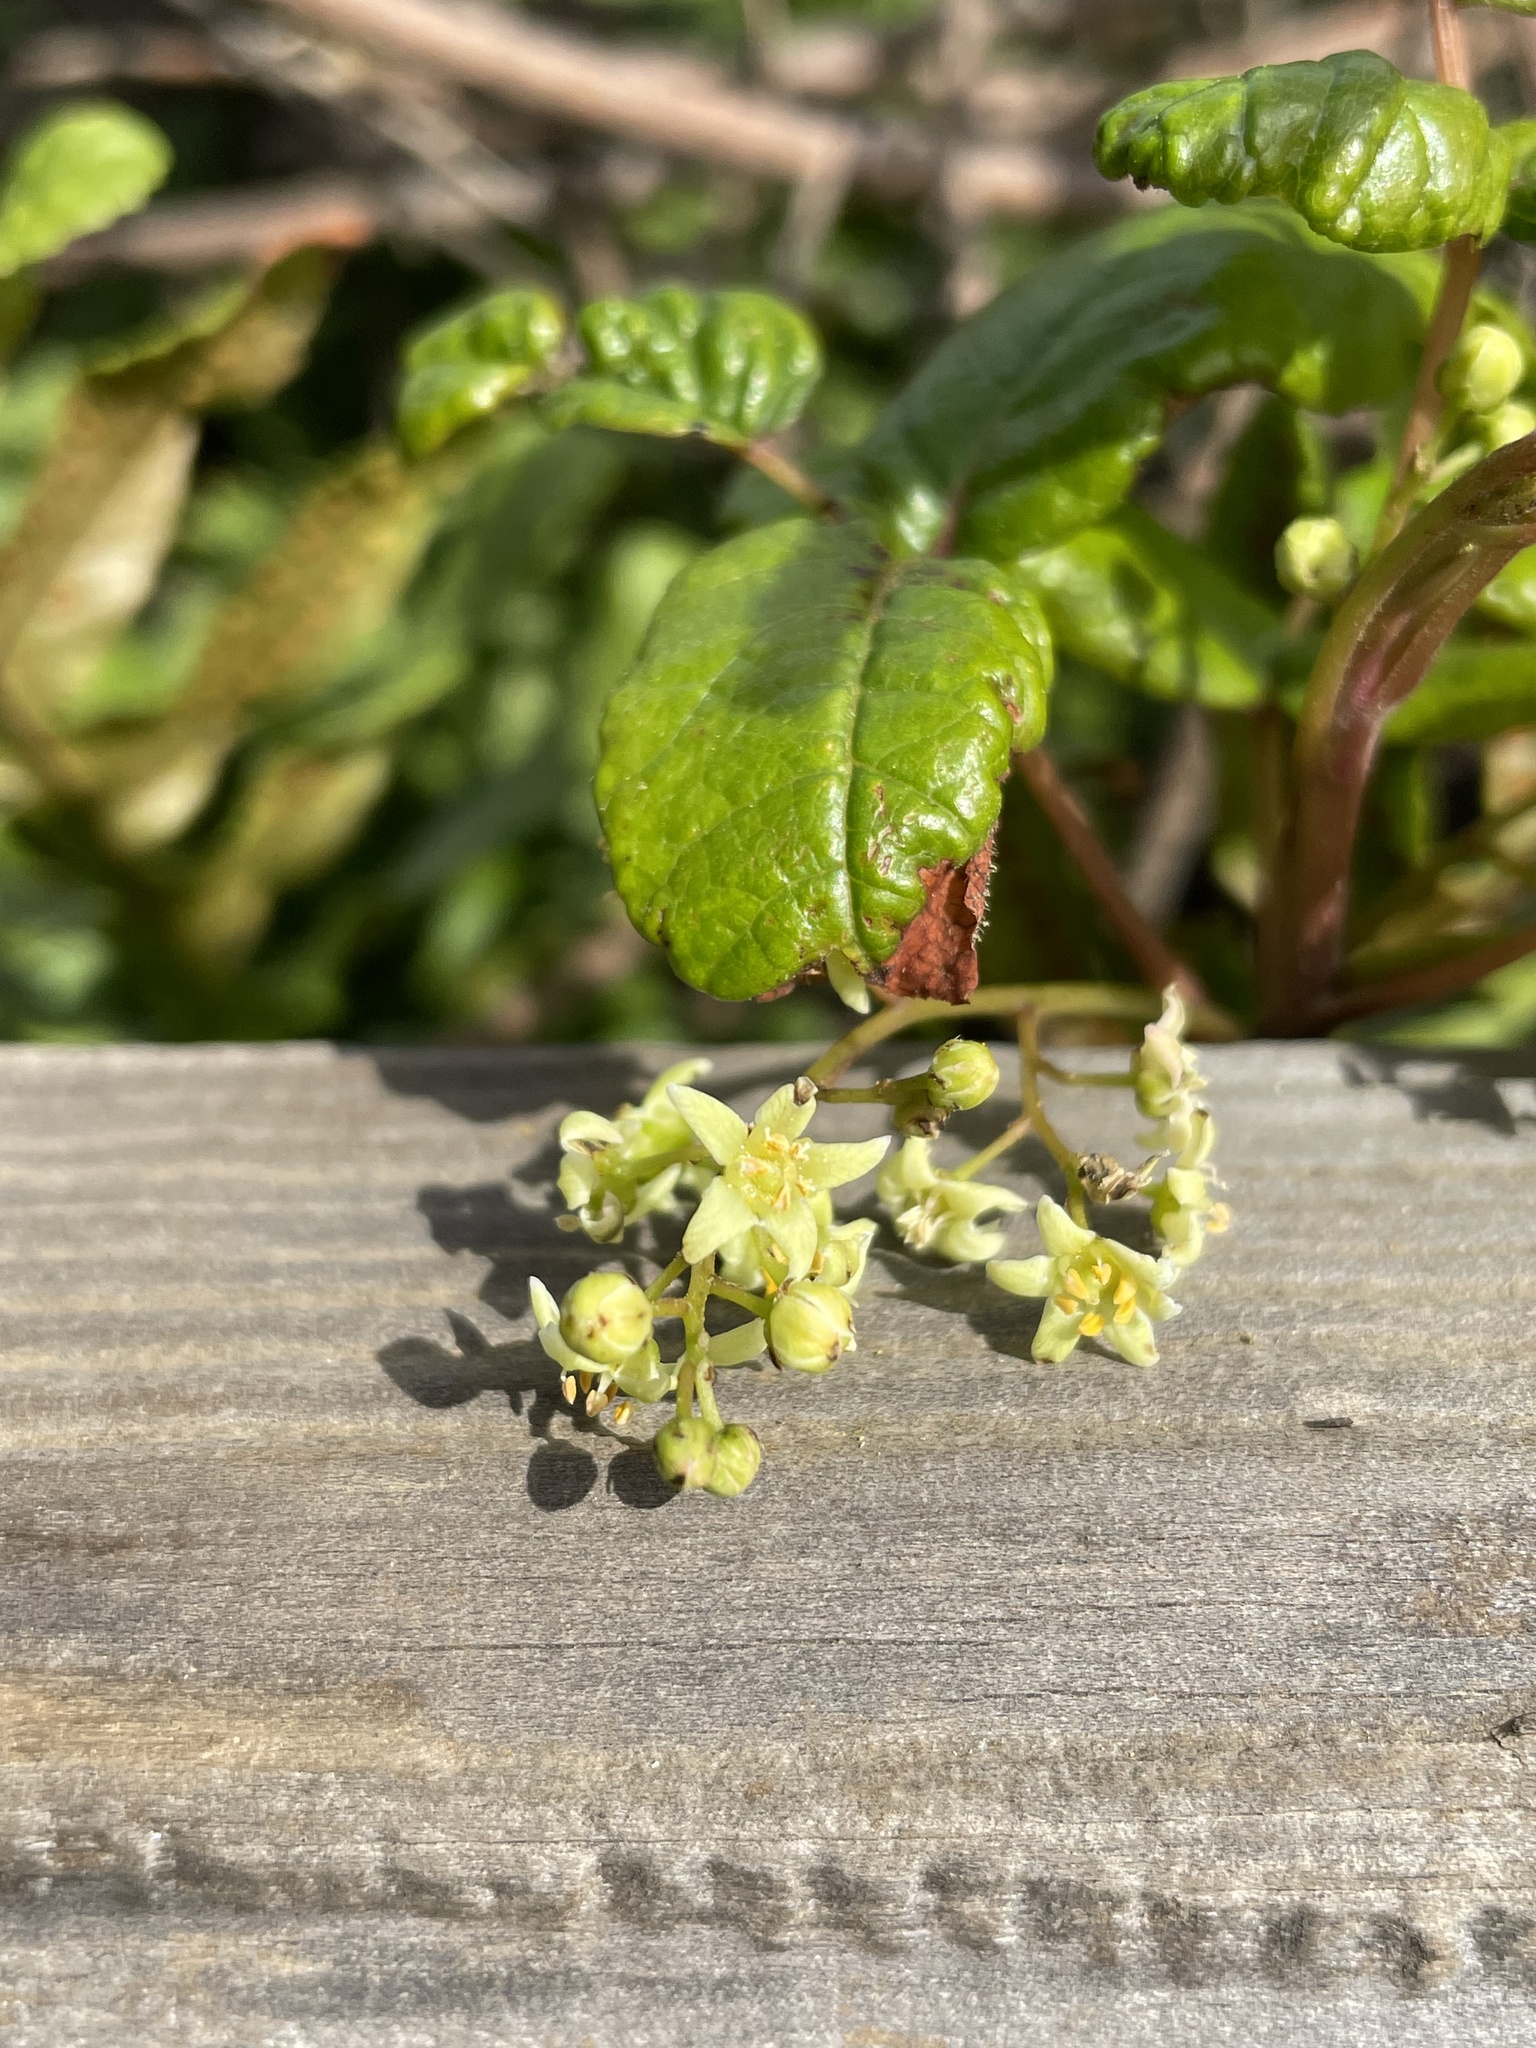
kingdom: Plantae
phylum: Tracheophyta
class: Magnoliopsida
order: Sapindales
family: Anacardiaceae
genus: Toxicodendron
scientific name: Toxicodendron diversilobum
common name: Pacific poison-oak
